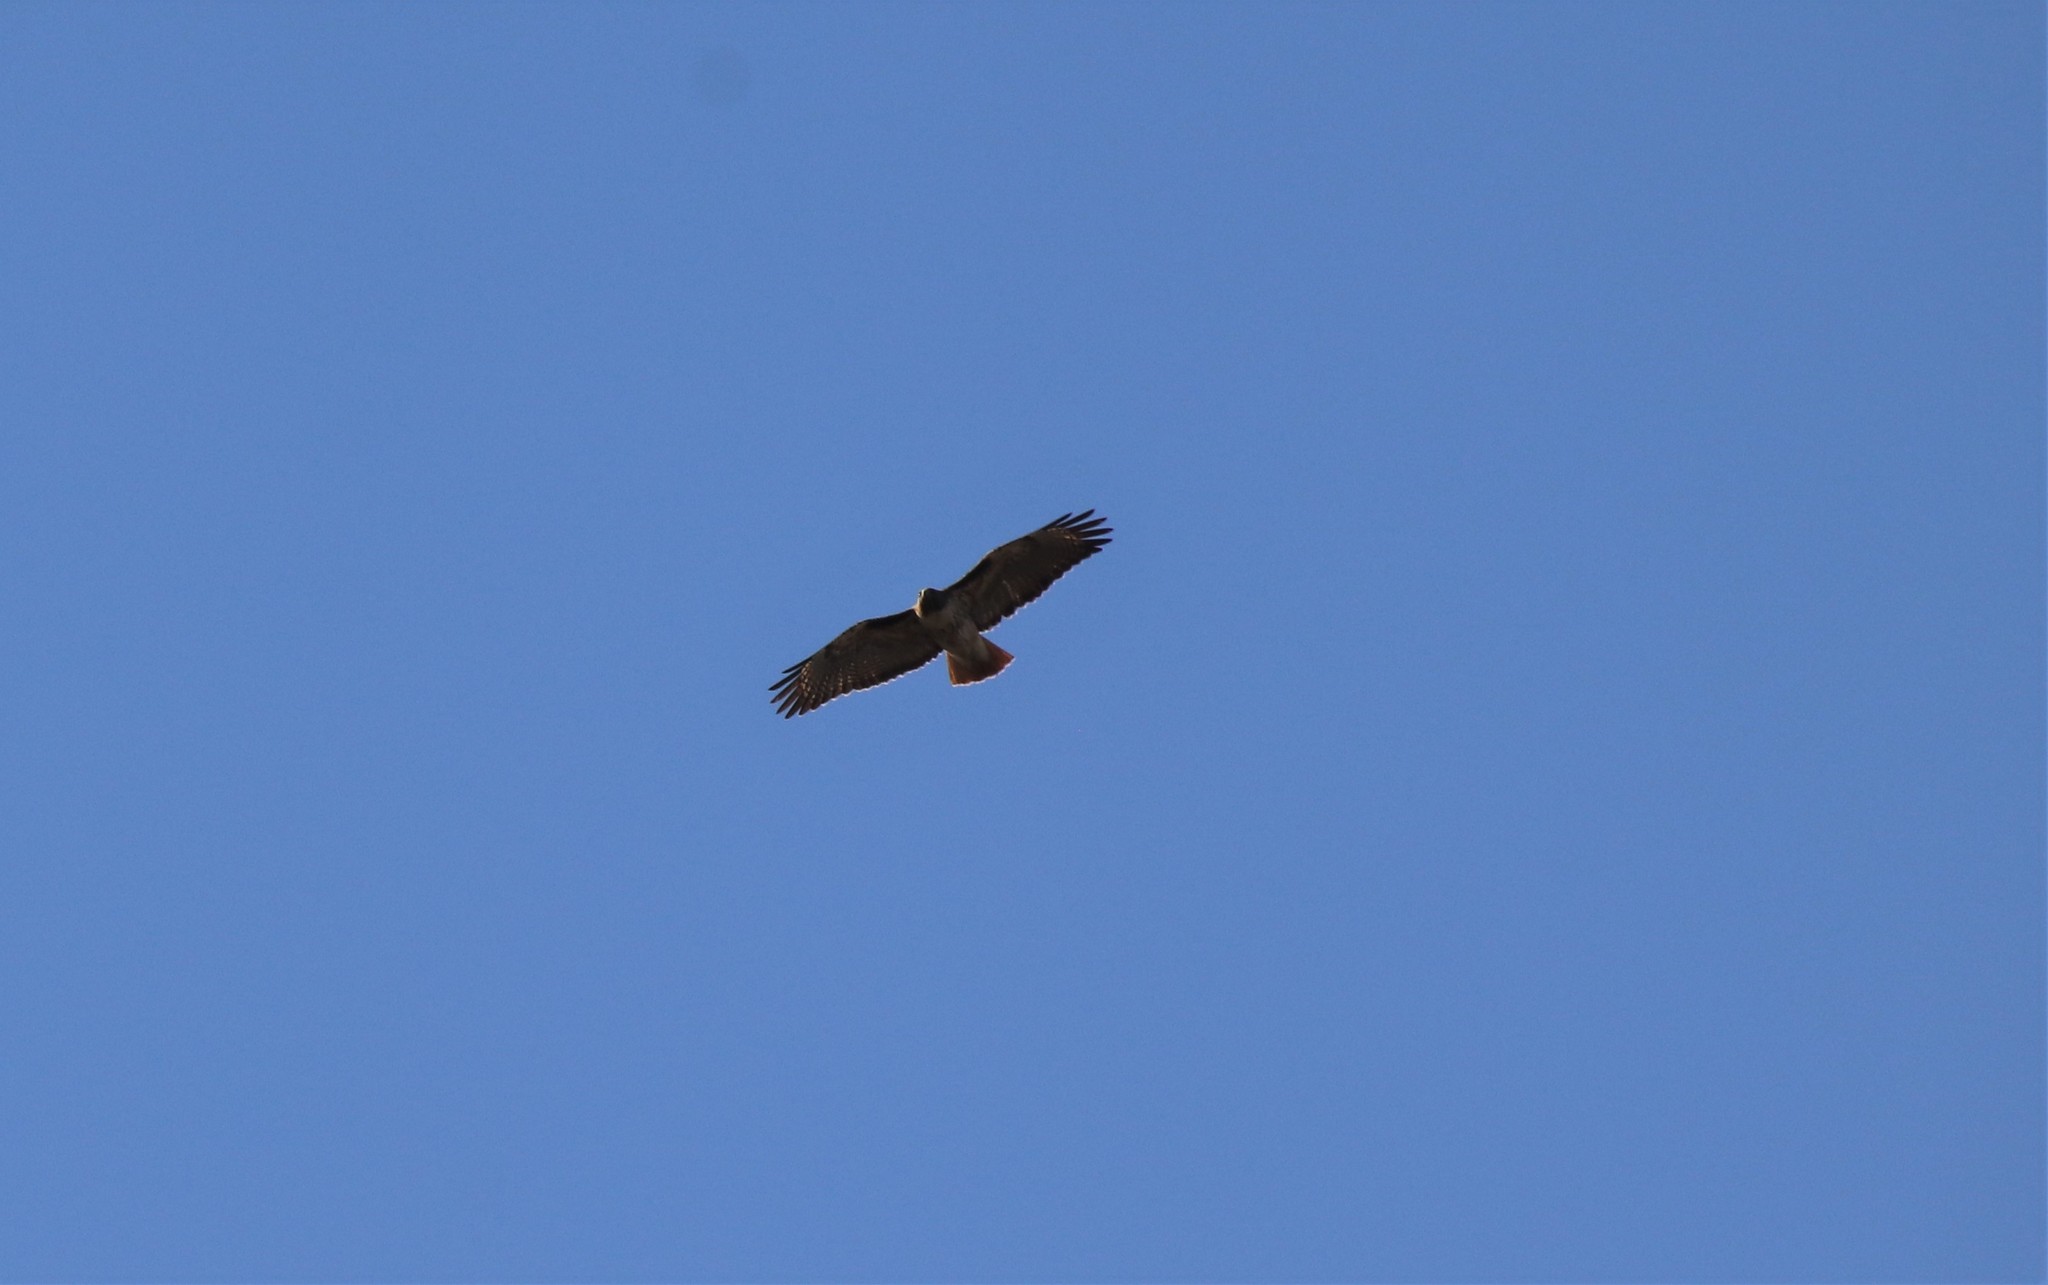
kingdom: Animalia
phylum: Chordata
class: Aves
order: Accipitriformes
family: Accipitridae
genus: Buteo
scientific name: Buteo jamaicensis
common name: Red-tailed hawk
